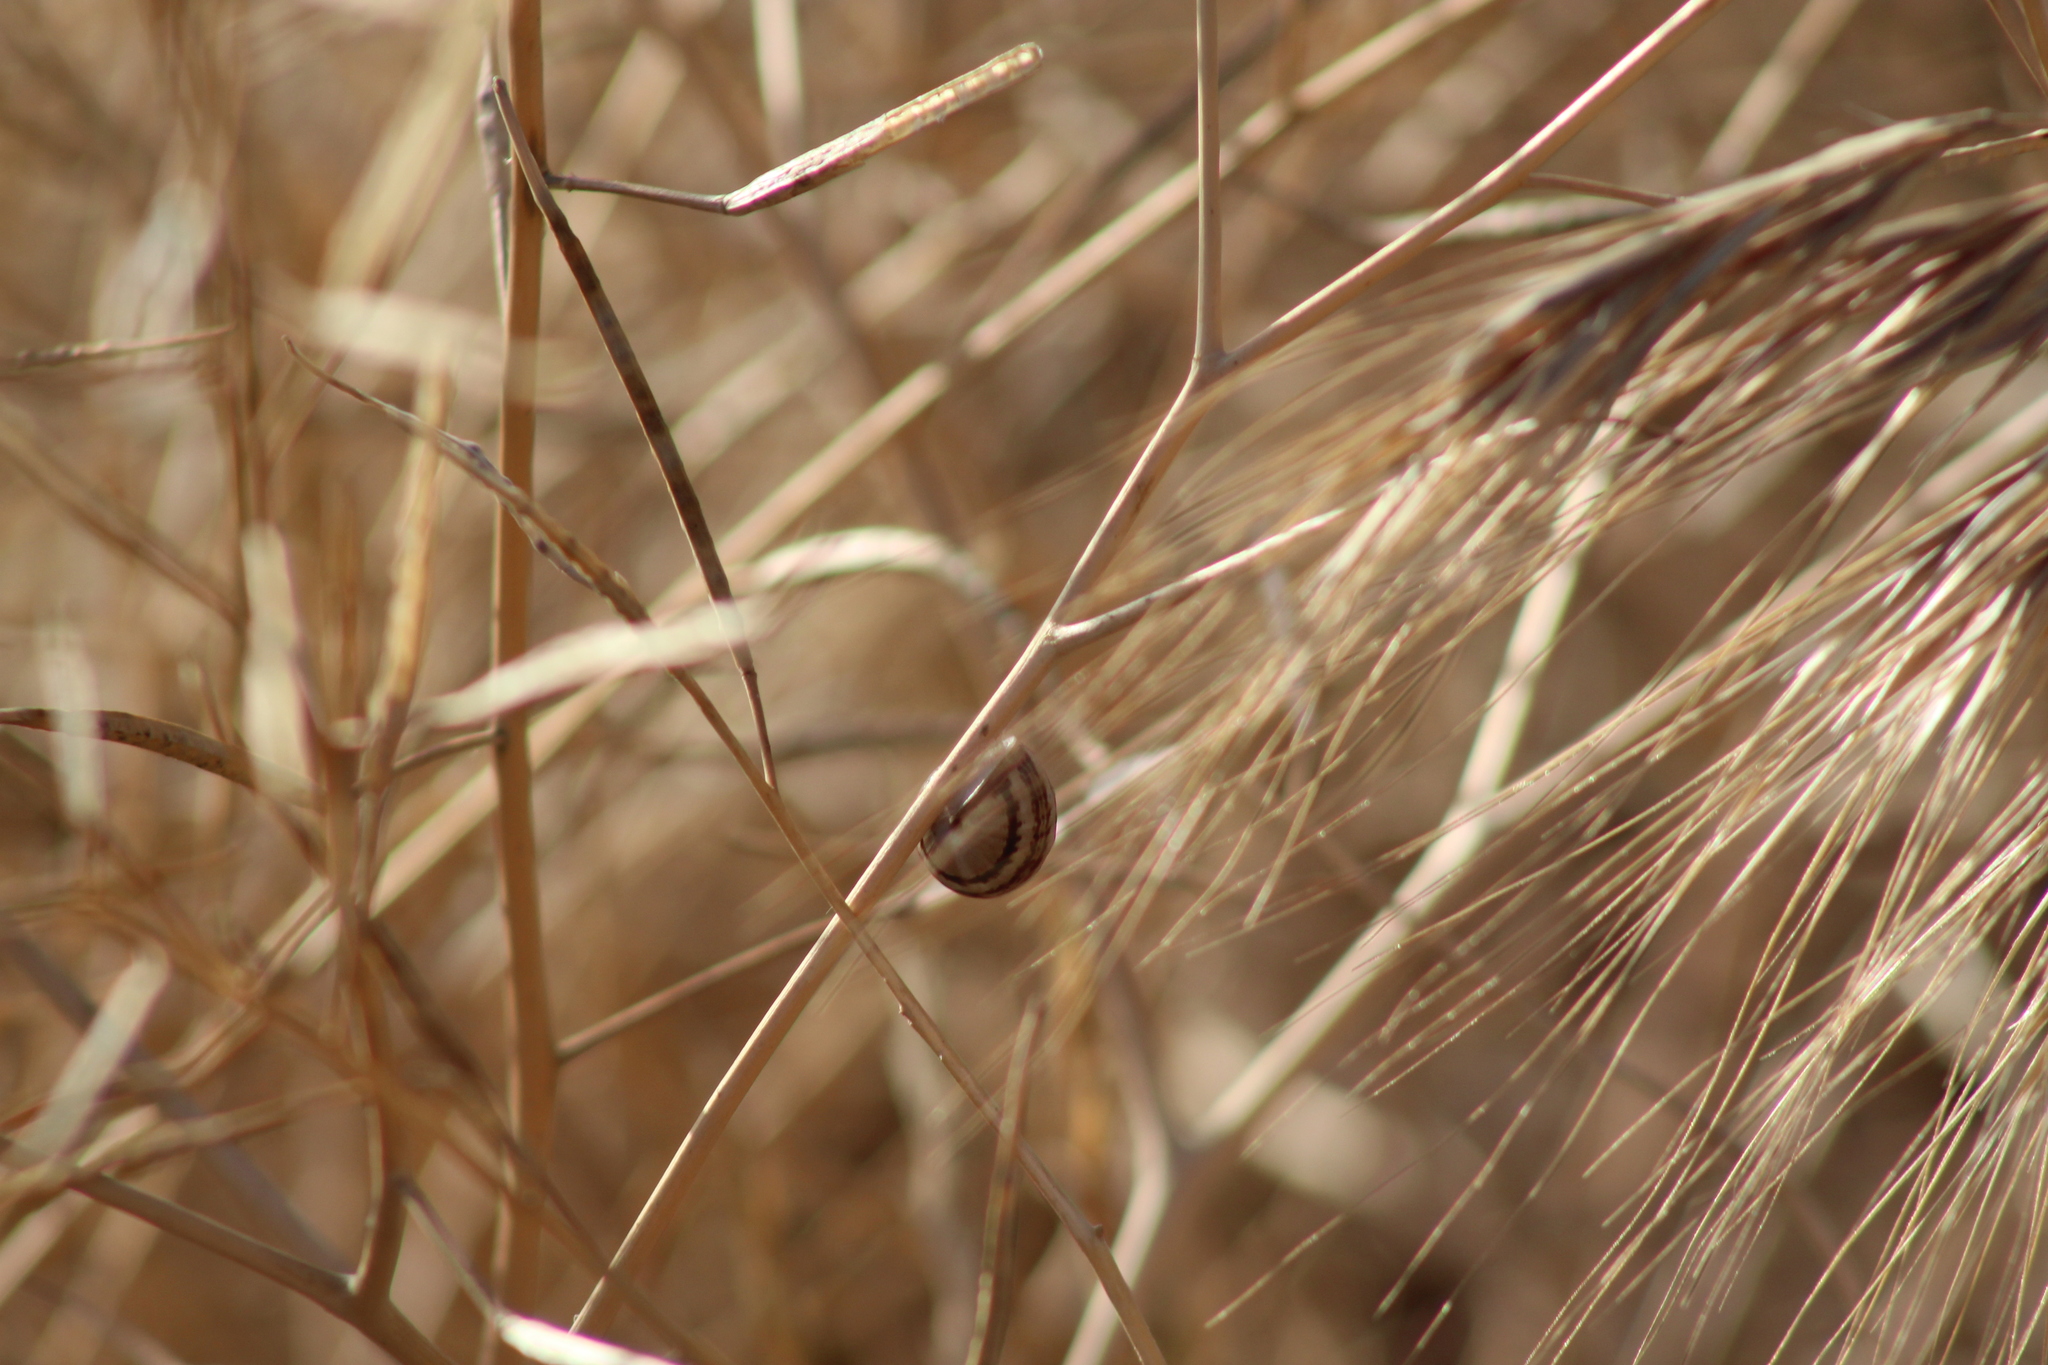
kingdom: Animalia
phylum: Mollusca
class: Gastropoda
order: Stylommatophora
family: Helicidae
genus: Theba
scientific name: Theba pisana
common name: White snail
